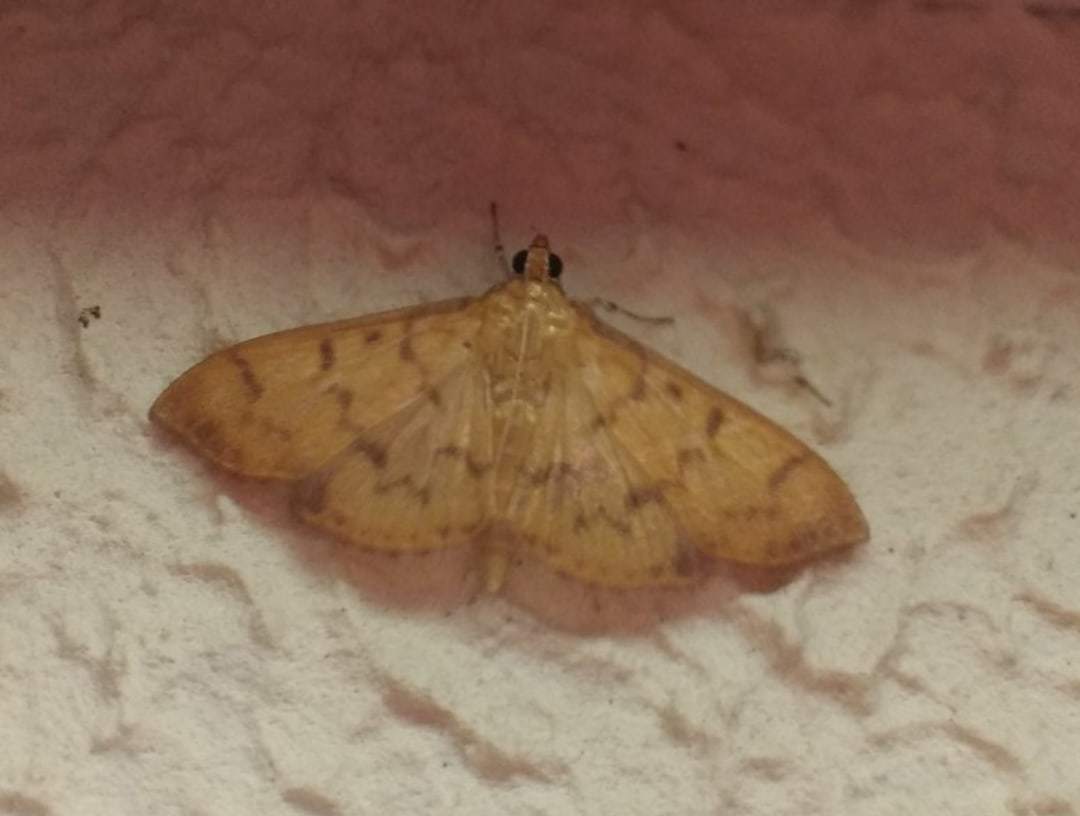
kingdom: Animalia
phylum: Arthropoda
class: Insecta
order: Lepidoptera
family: Crambidae
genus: Pleuroptya
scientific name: Pleuroptya balteata
